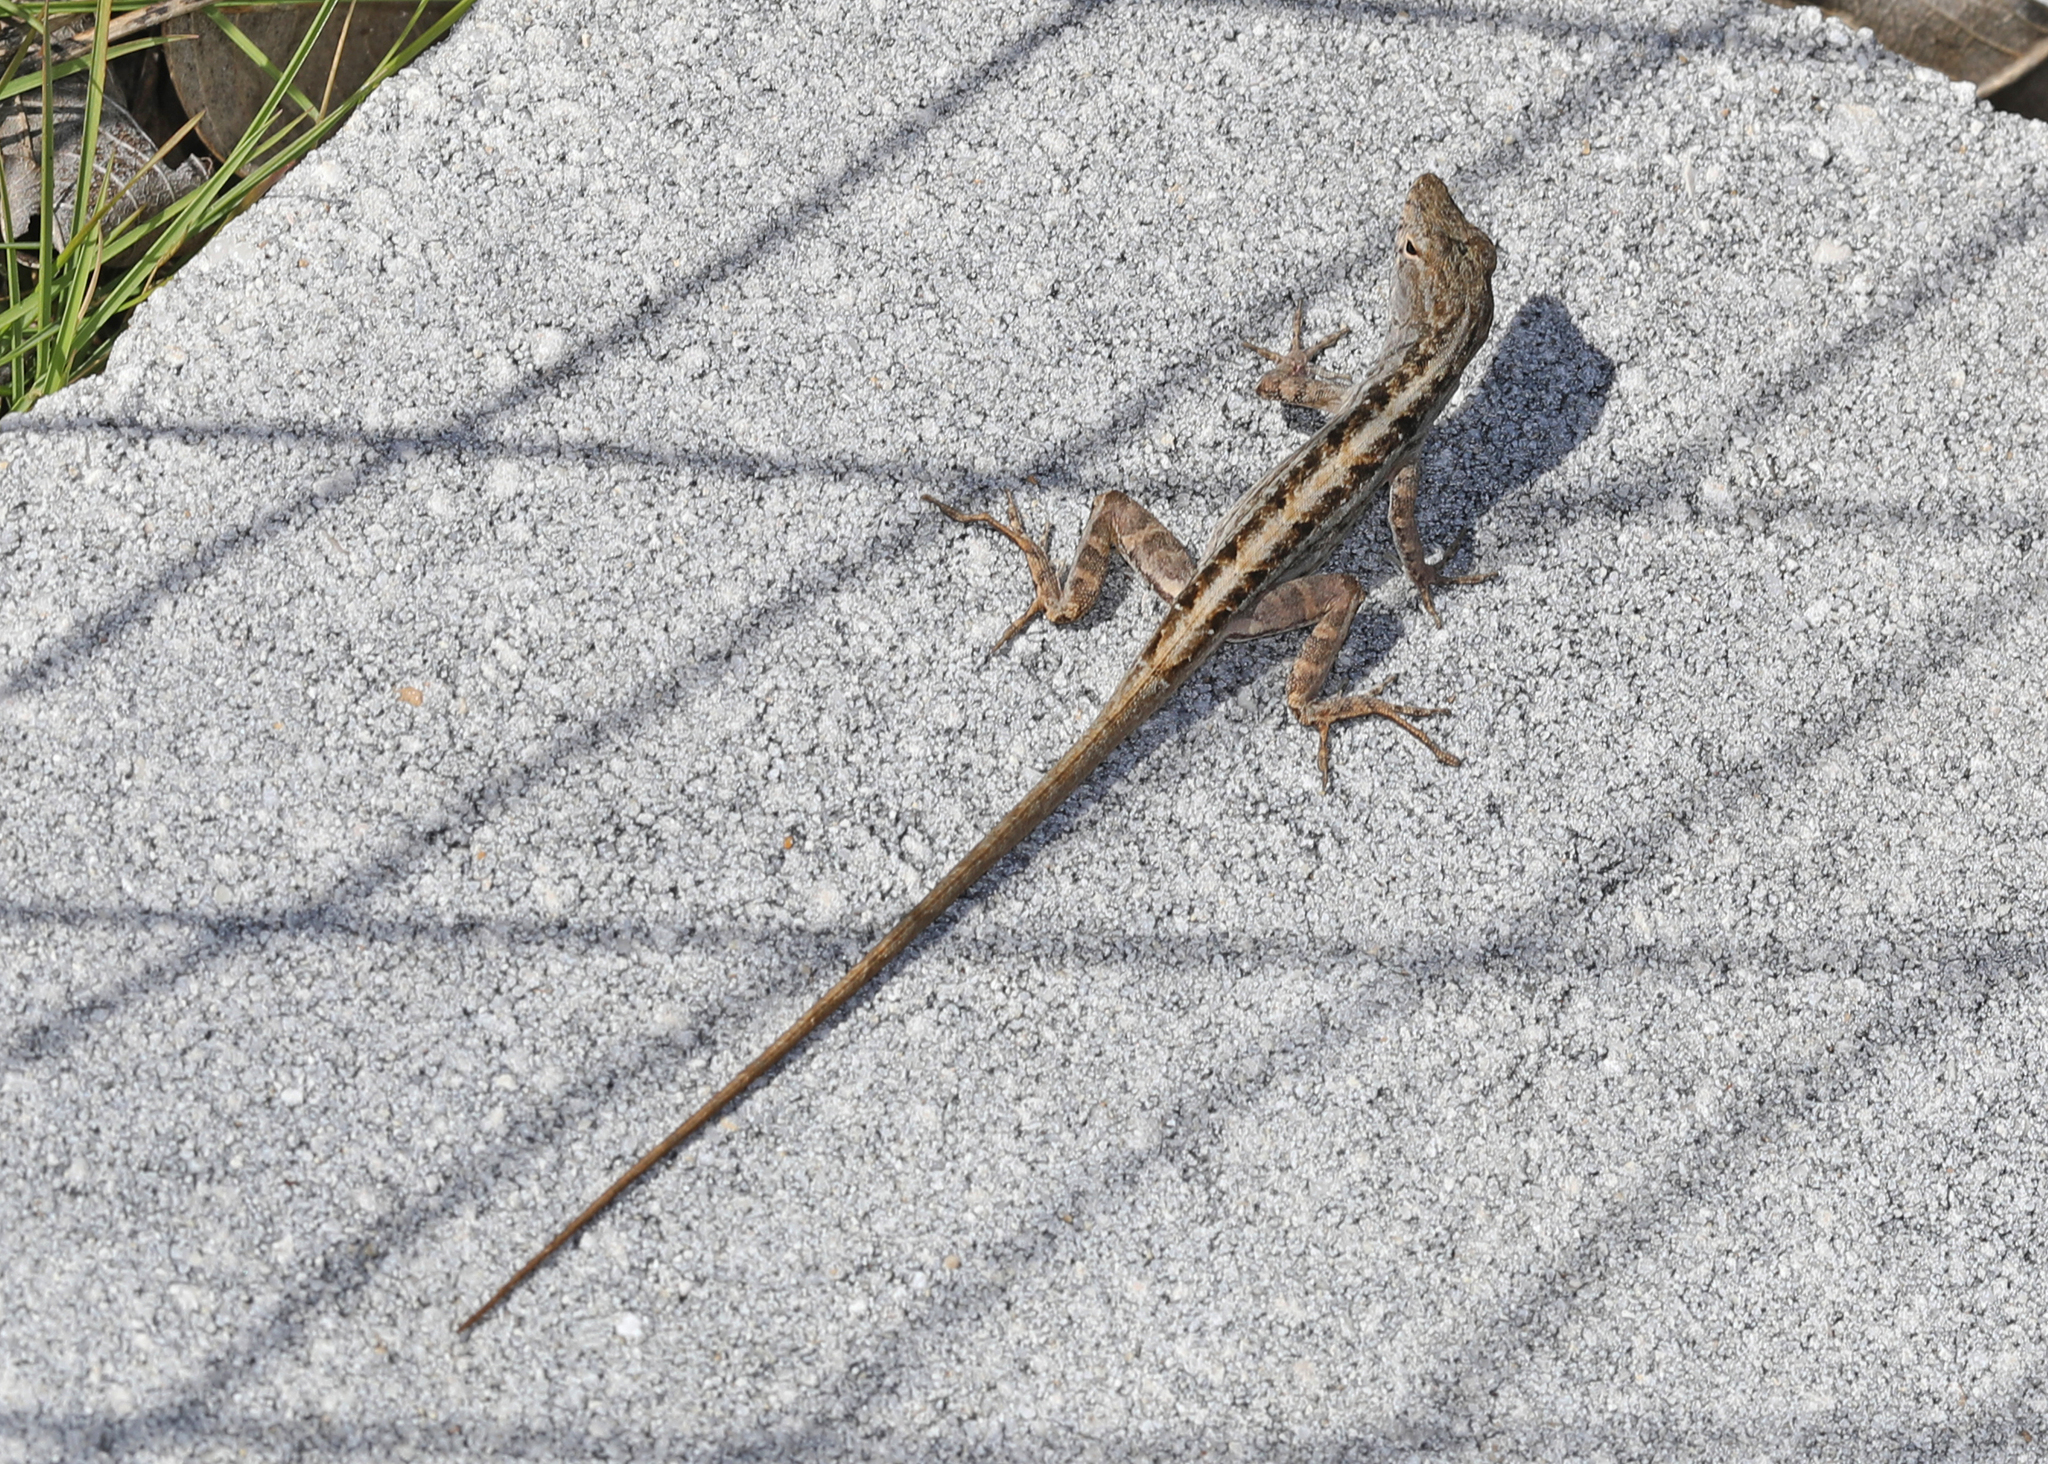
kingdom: Animalia
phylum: Chordata
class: Squamata
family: Dactyloidae
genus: Anolis
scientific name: Anolis sagrei
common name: Brown anole
